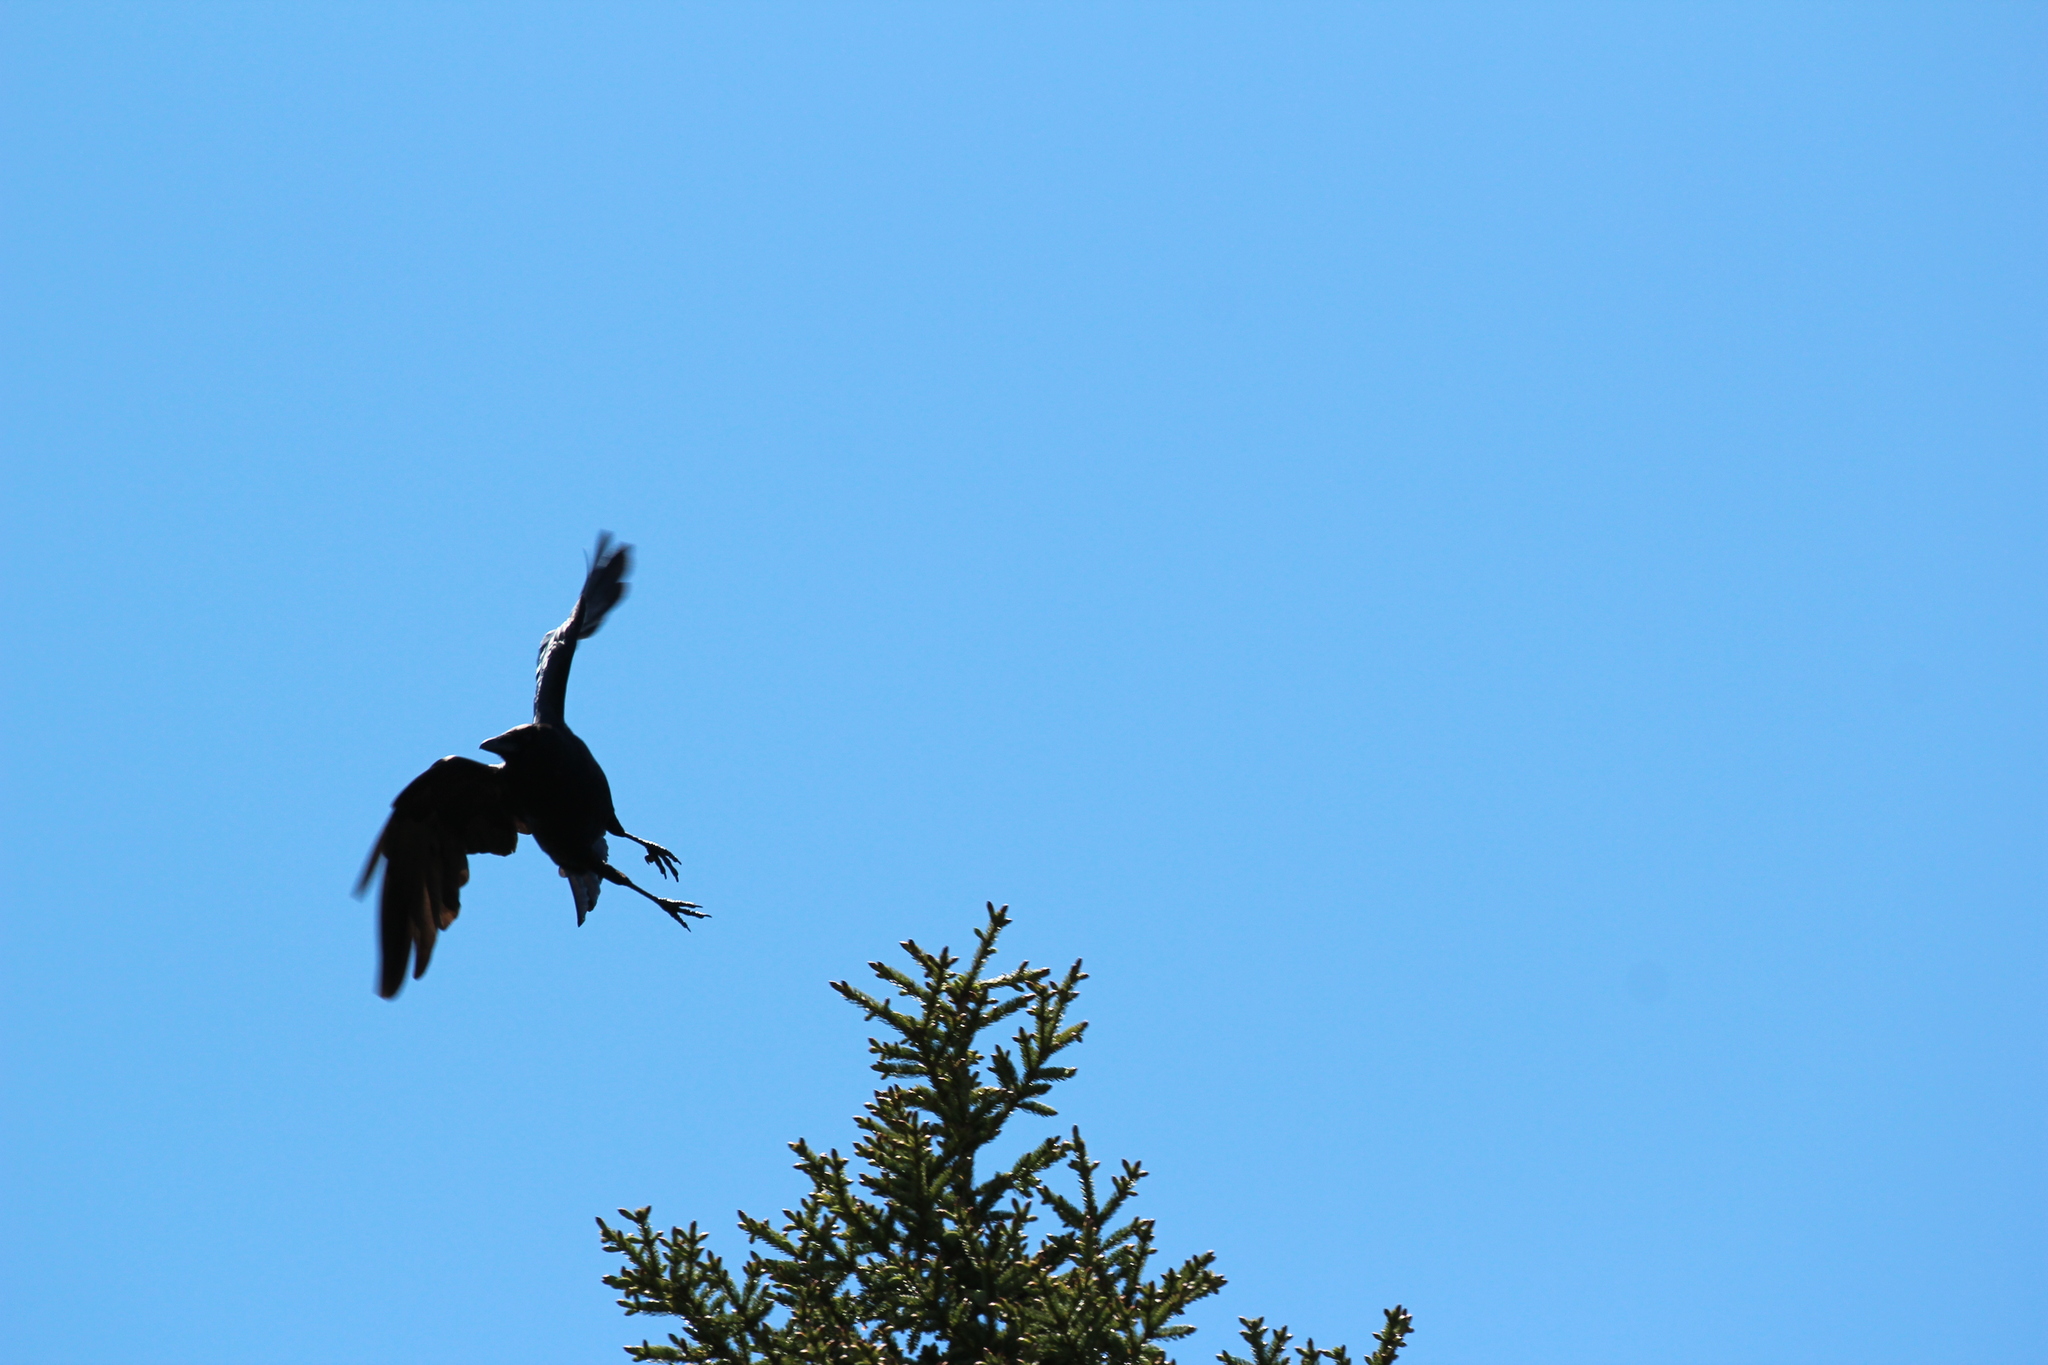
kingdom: Animalia
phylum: Chordata
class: Aves
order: Passeriformes
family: Corvidae
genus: Corvus
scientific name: Corvus brachyrhynchos
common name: American crow
